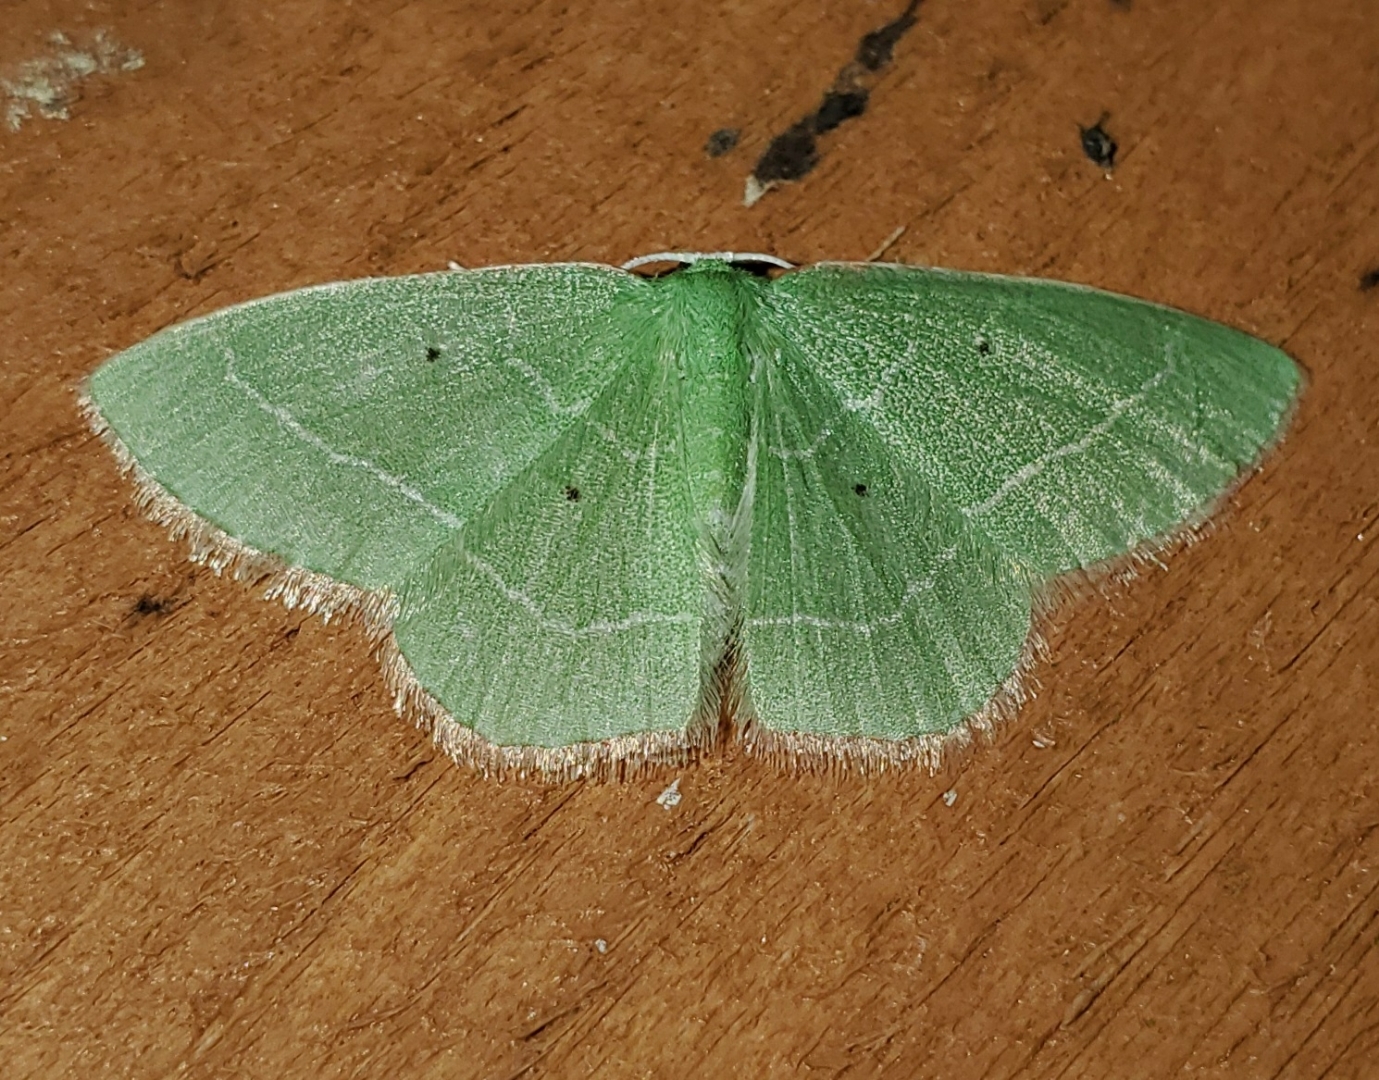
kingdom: Animalia
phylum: Arthropoda
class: Insecta
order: Lepidoptera
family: Geometridae
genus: Nemoria
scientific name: Nemoria elfa
